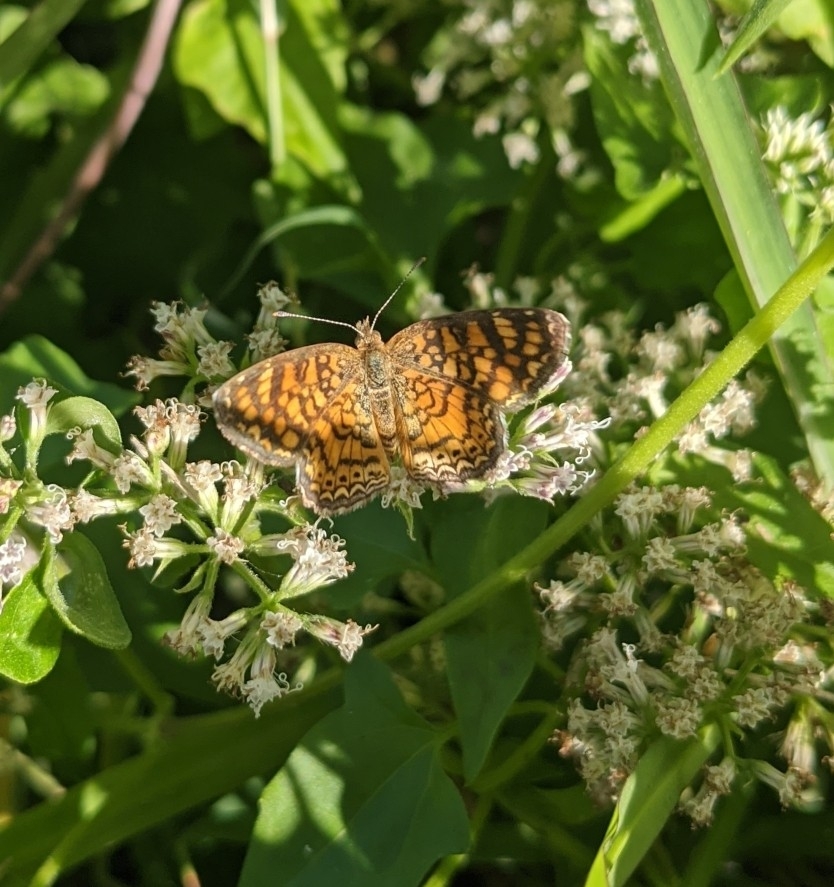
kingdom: Animalia
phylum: Arthropoda
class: Insecta
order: Lepidoptera
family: Nymphalidae
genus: Phyciodes
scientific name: Phyciodes vesta
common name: Vesta crescent
